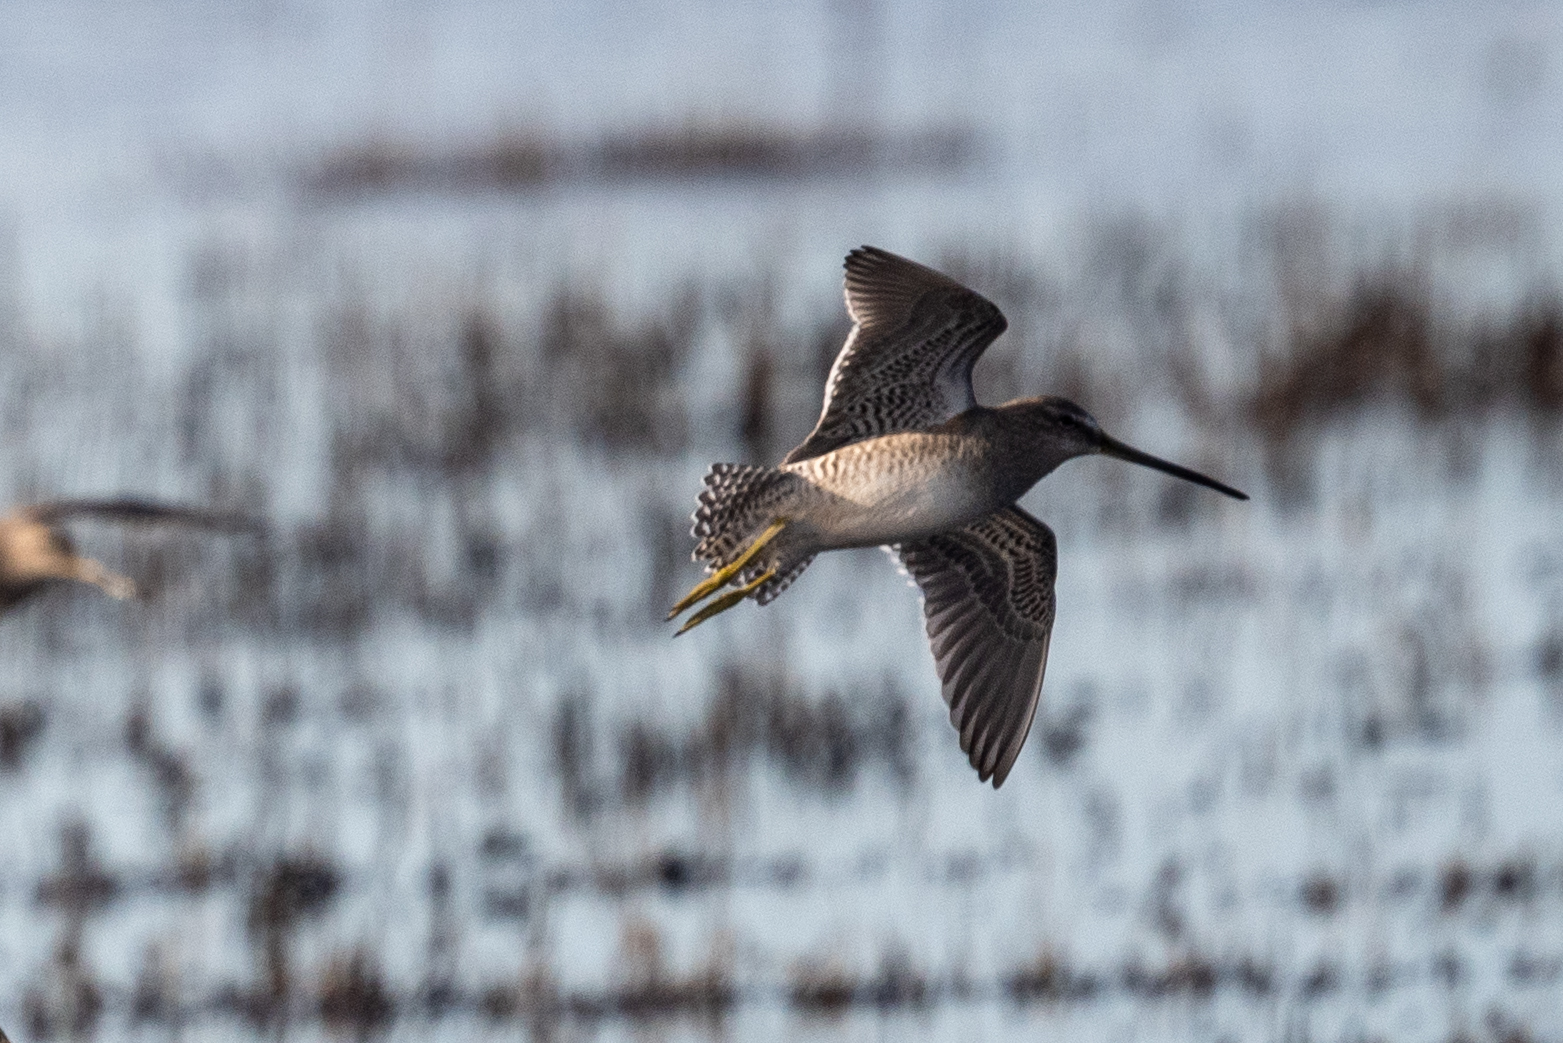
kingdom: Animalia
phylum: Chordata
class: Aves
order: Charadriiformes
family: Scolopacidae
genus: Limnodromus
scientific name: Limnodromus scolopaceus
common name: Long-billed dowitcher
